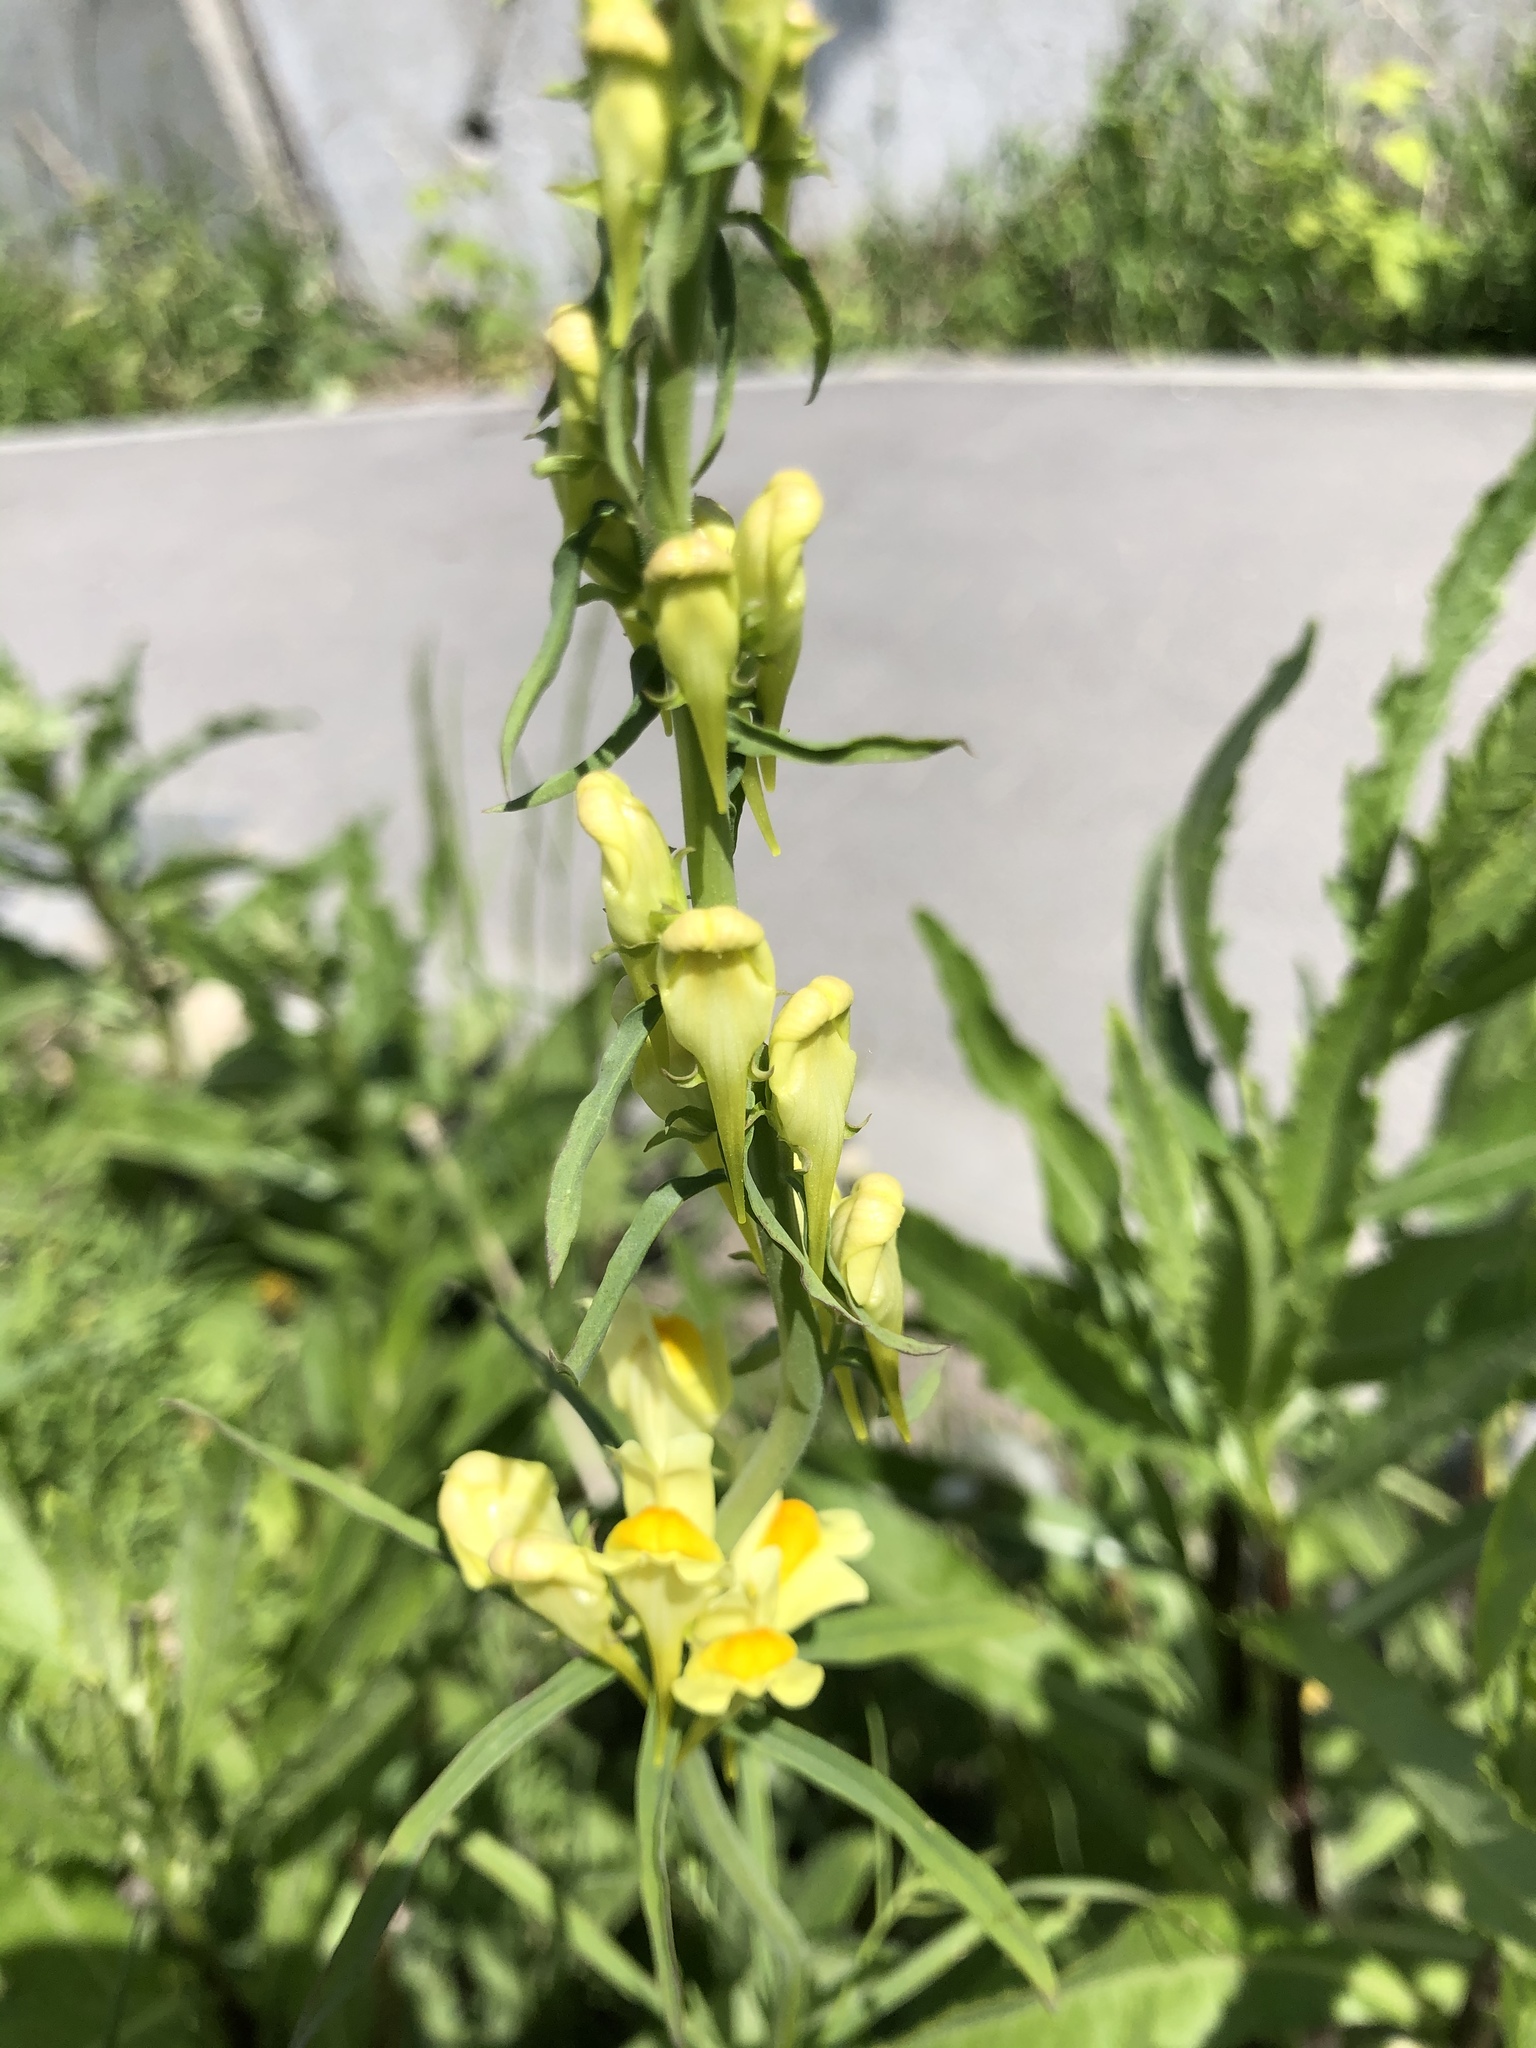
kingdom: Plantae
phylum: Tracheophyta
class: Magnoliopsida
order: Lamiales
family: Plantaginaceae
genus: Linaria
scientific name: Linaria vulgaris
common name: Butter and eggs
